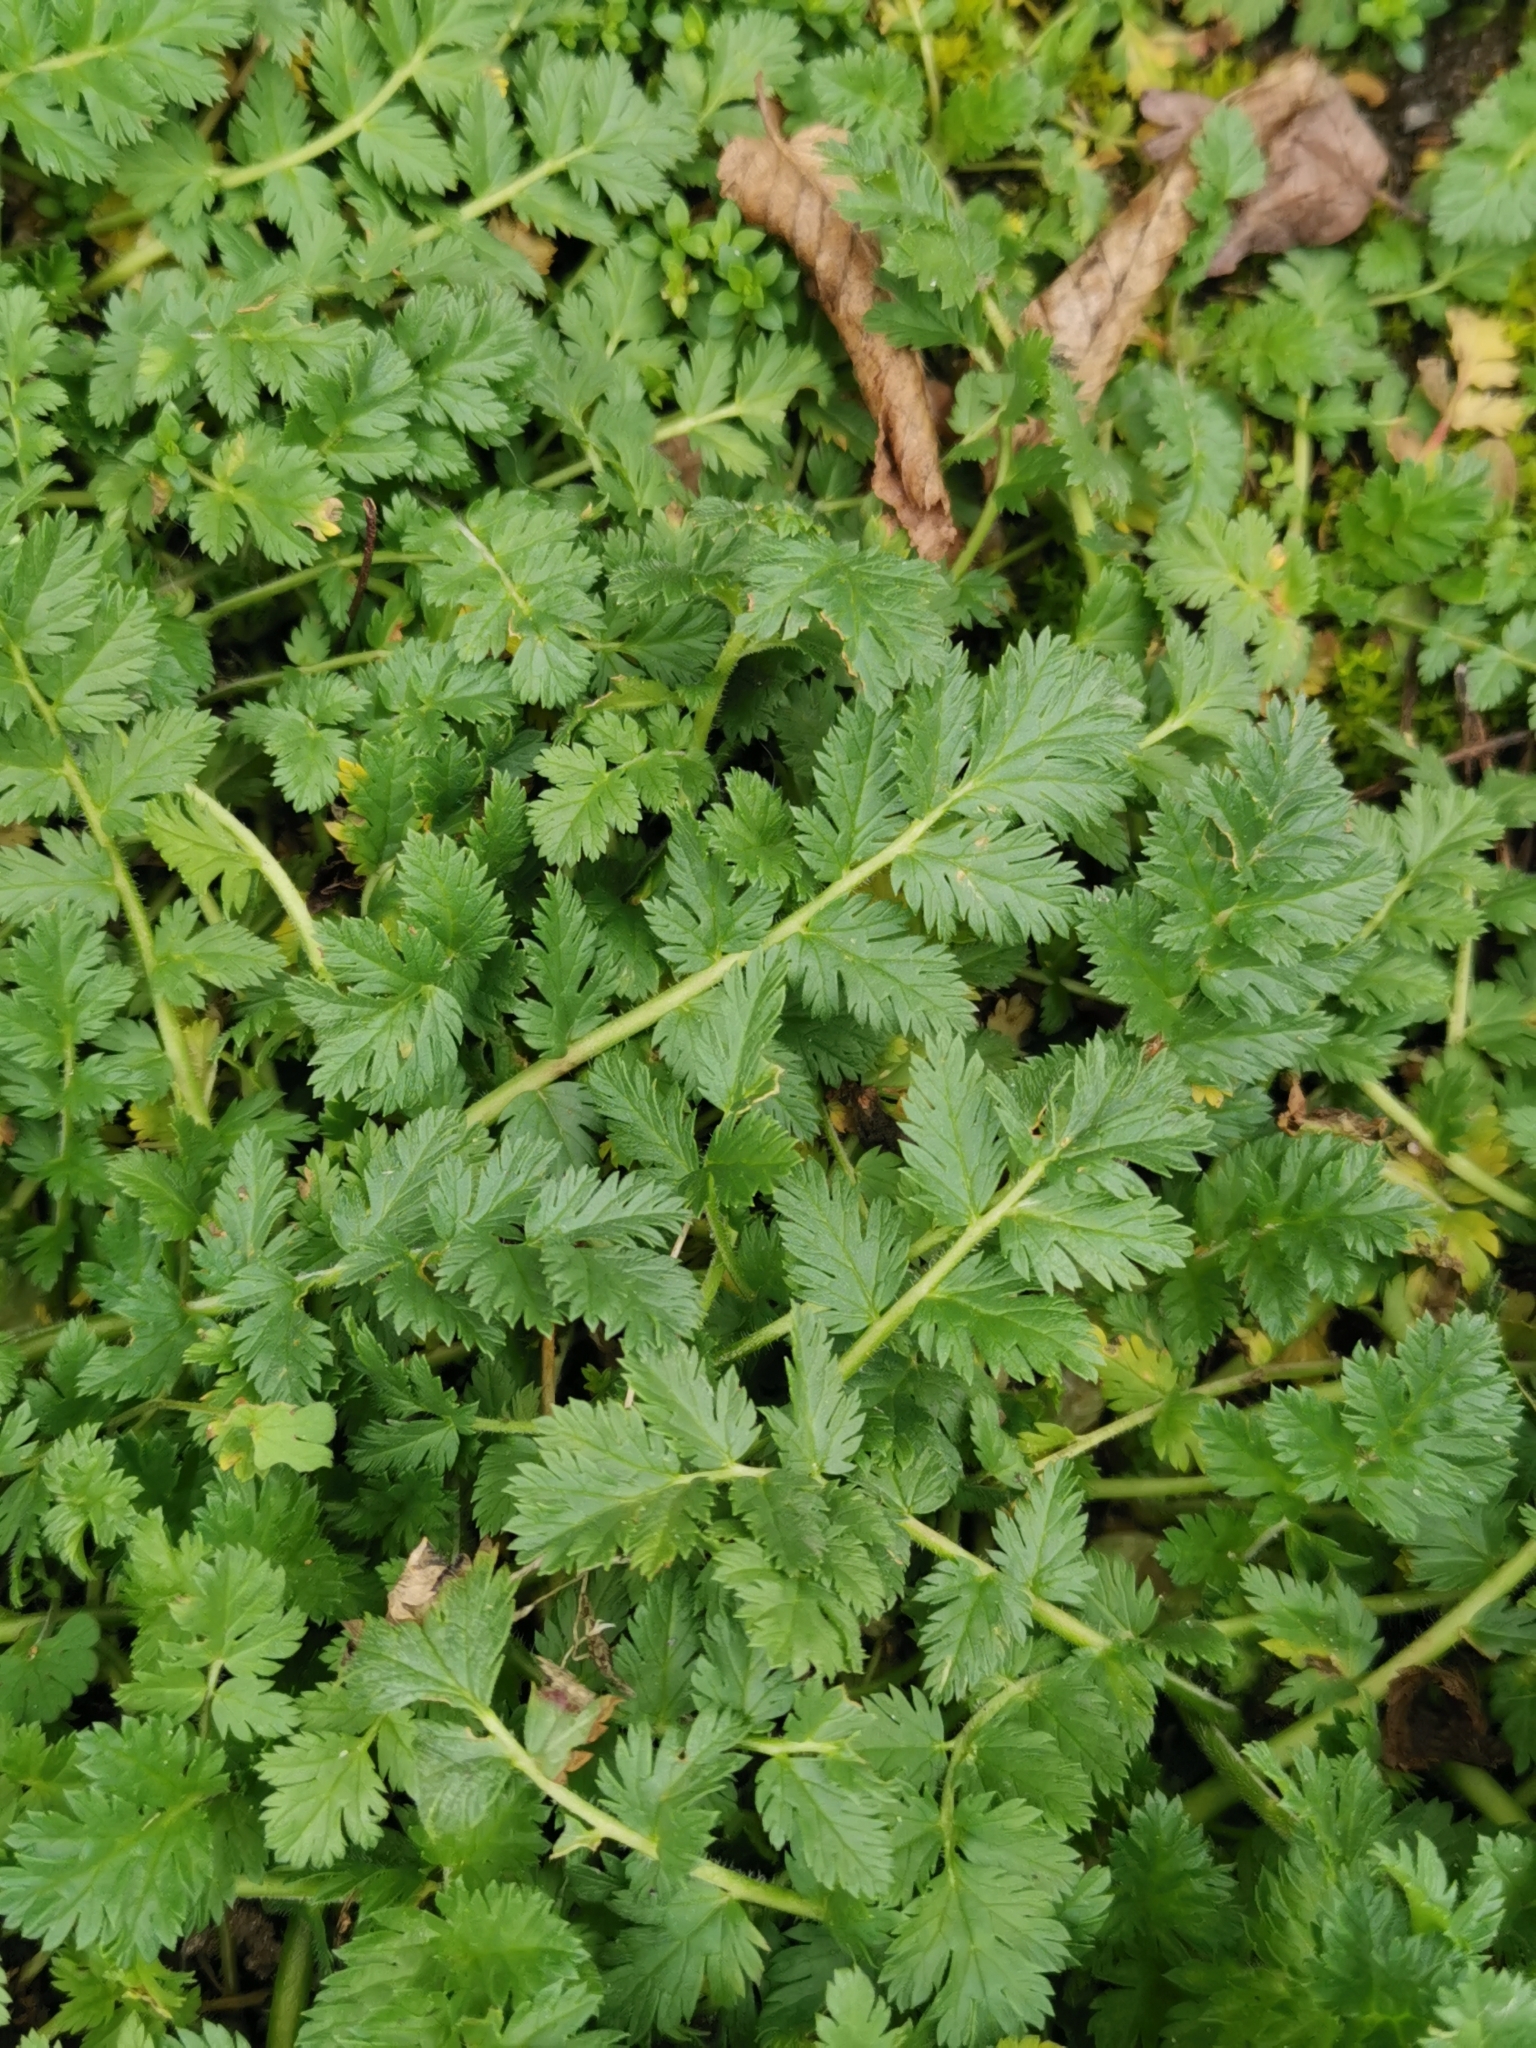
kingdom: Plantae
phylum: Tracheophyta
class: Magnoliopsida
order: Geraniales
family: Geraniaceae
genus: Erodium
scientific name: Erodium cicutarium
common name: Common stork's-bill
